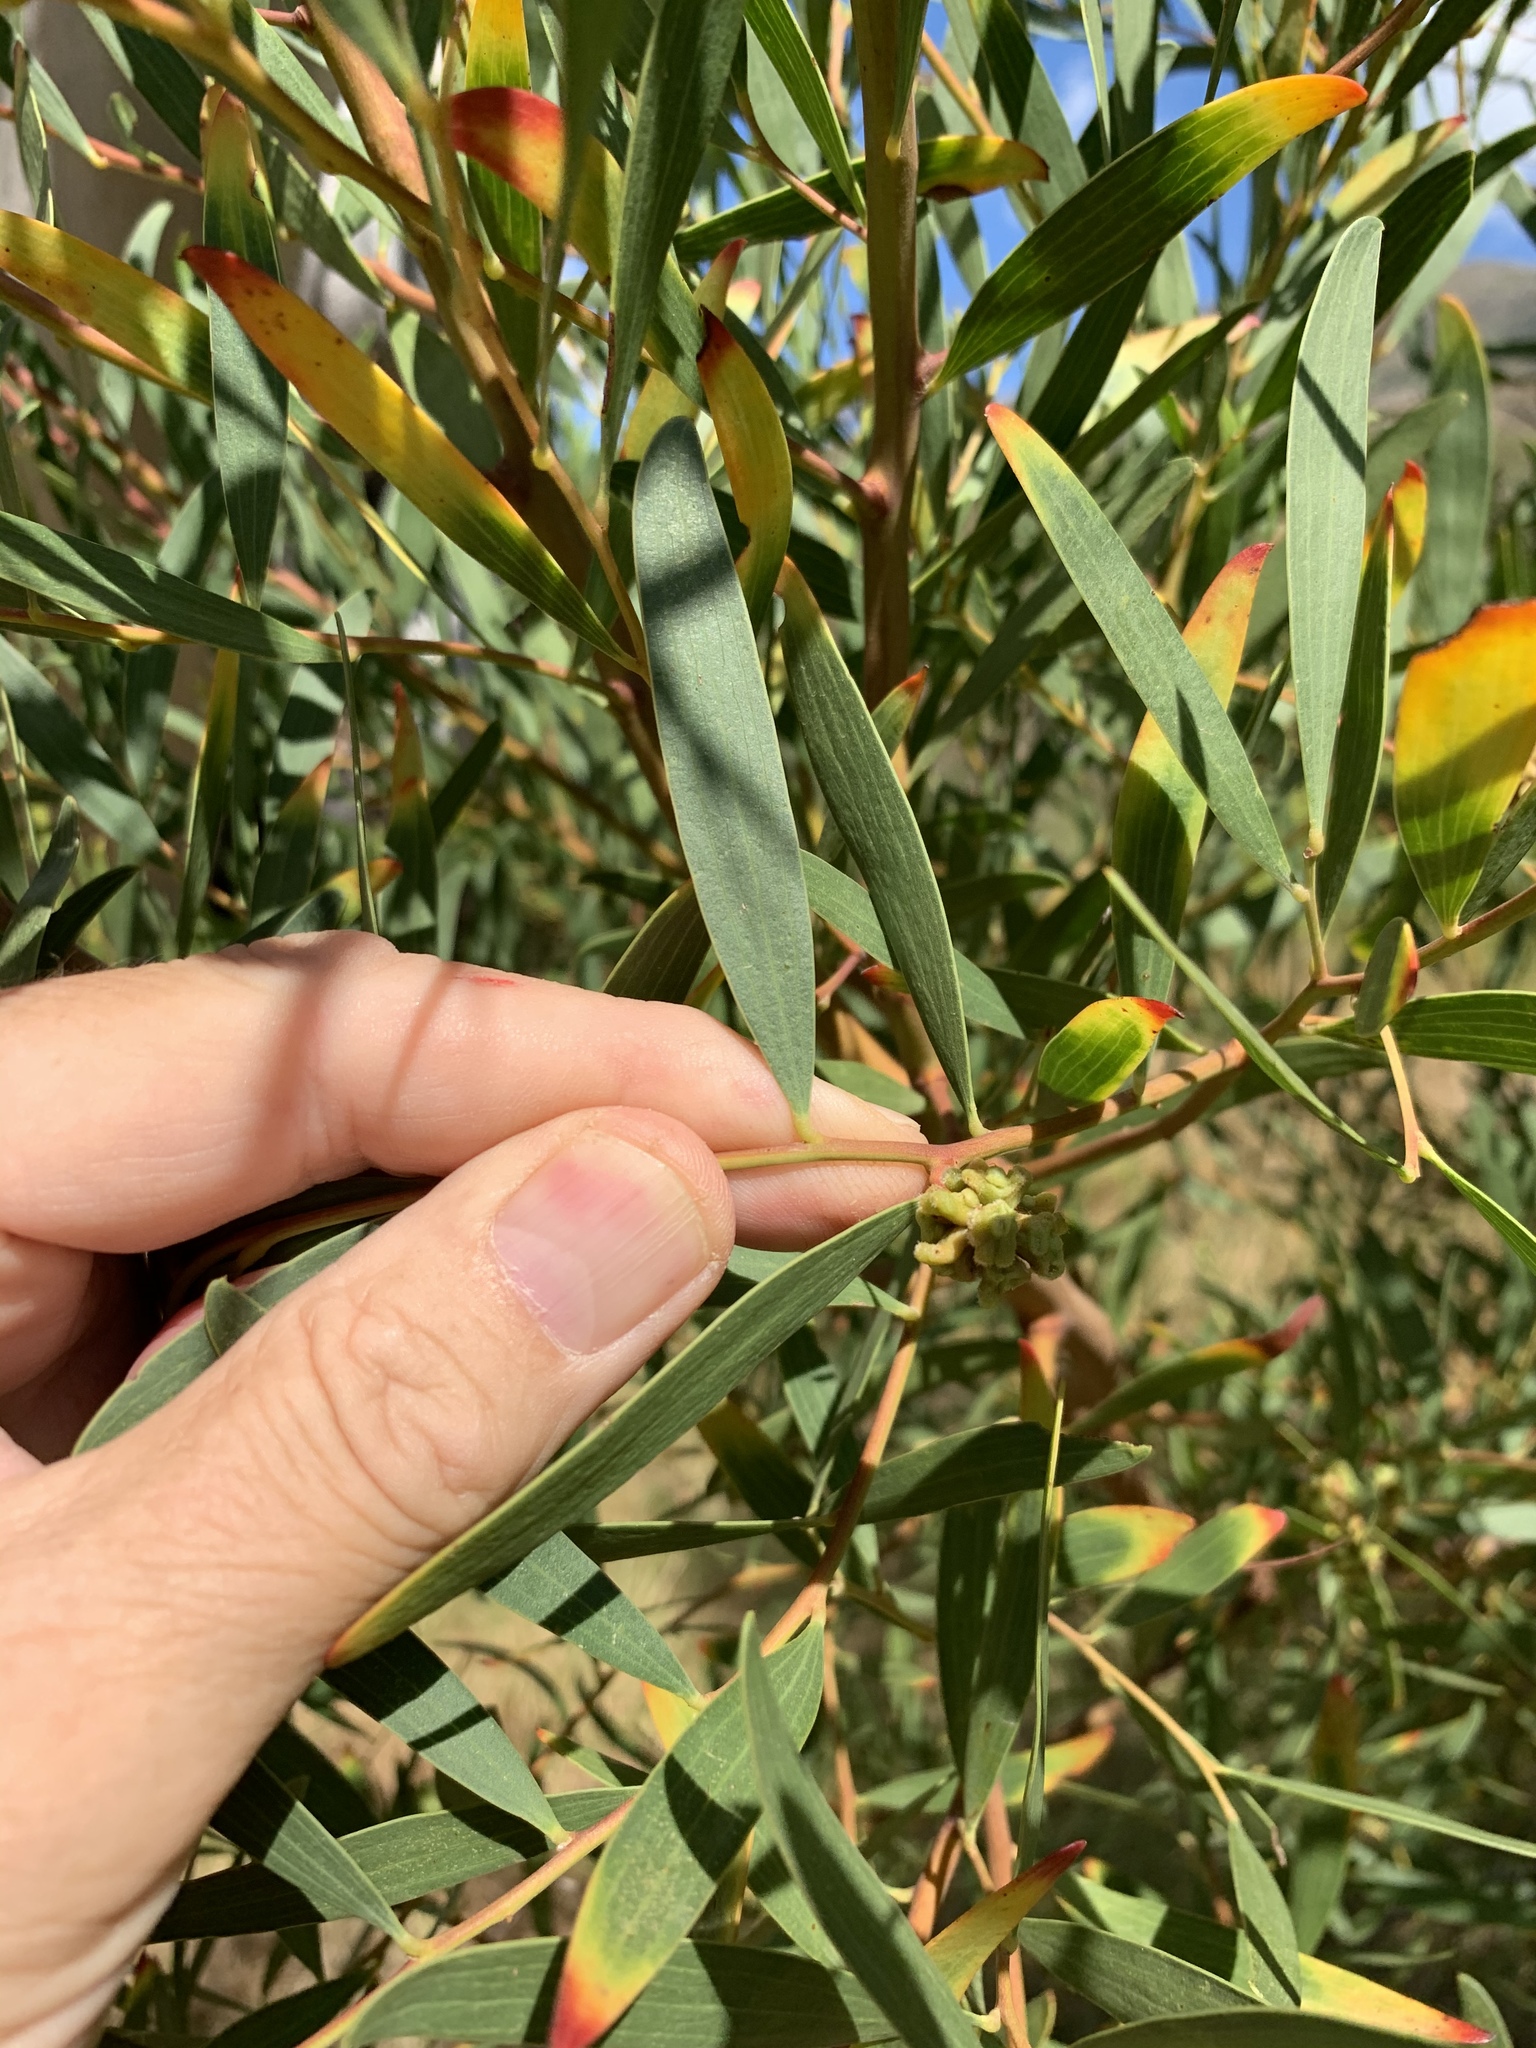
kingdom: Animalia
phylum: Arthropoda
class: Insecta
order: Diptera
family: Cecidomyiidae
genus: Dasineura
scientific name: Dasineura dielsi
